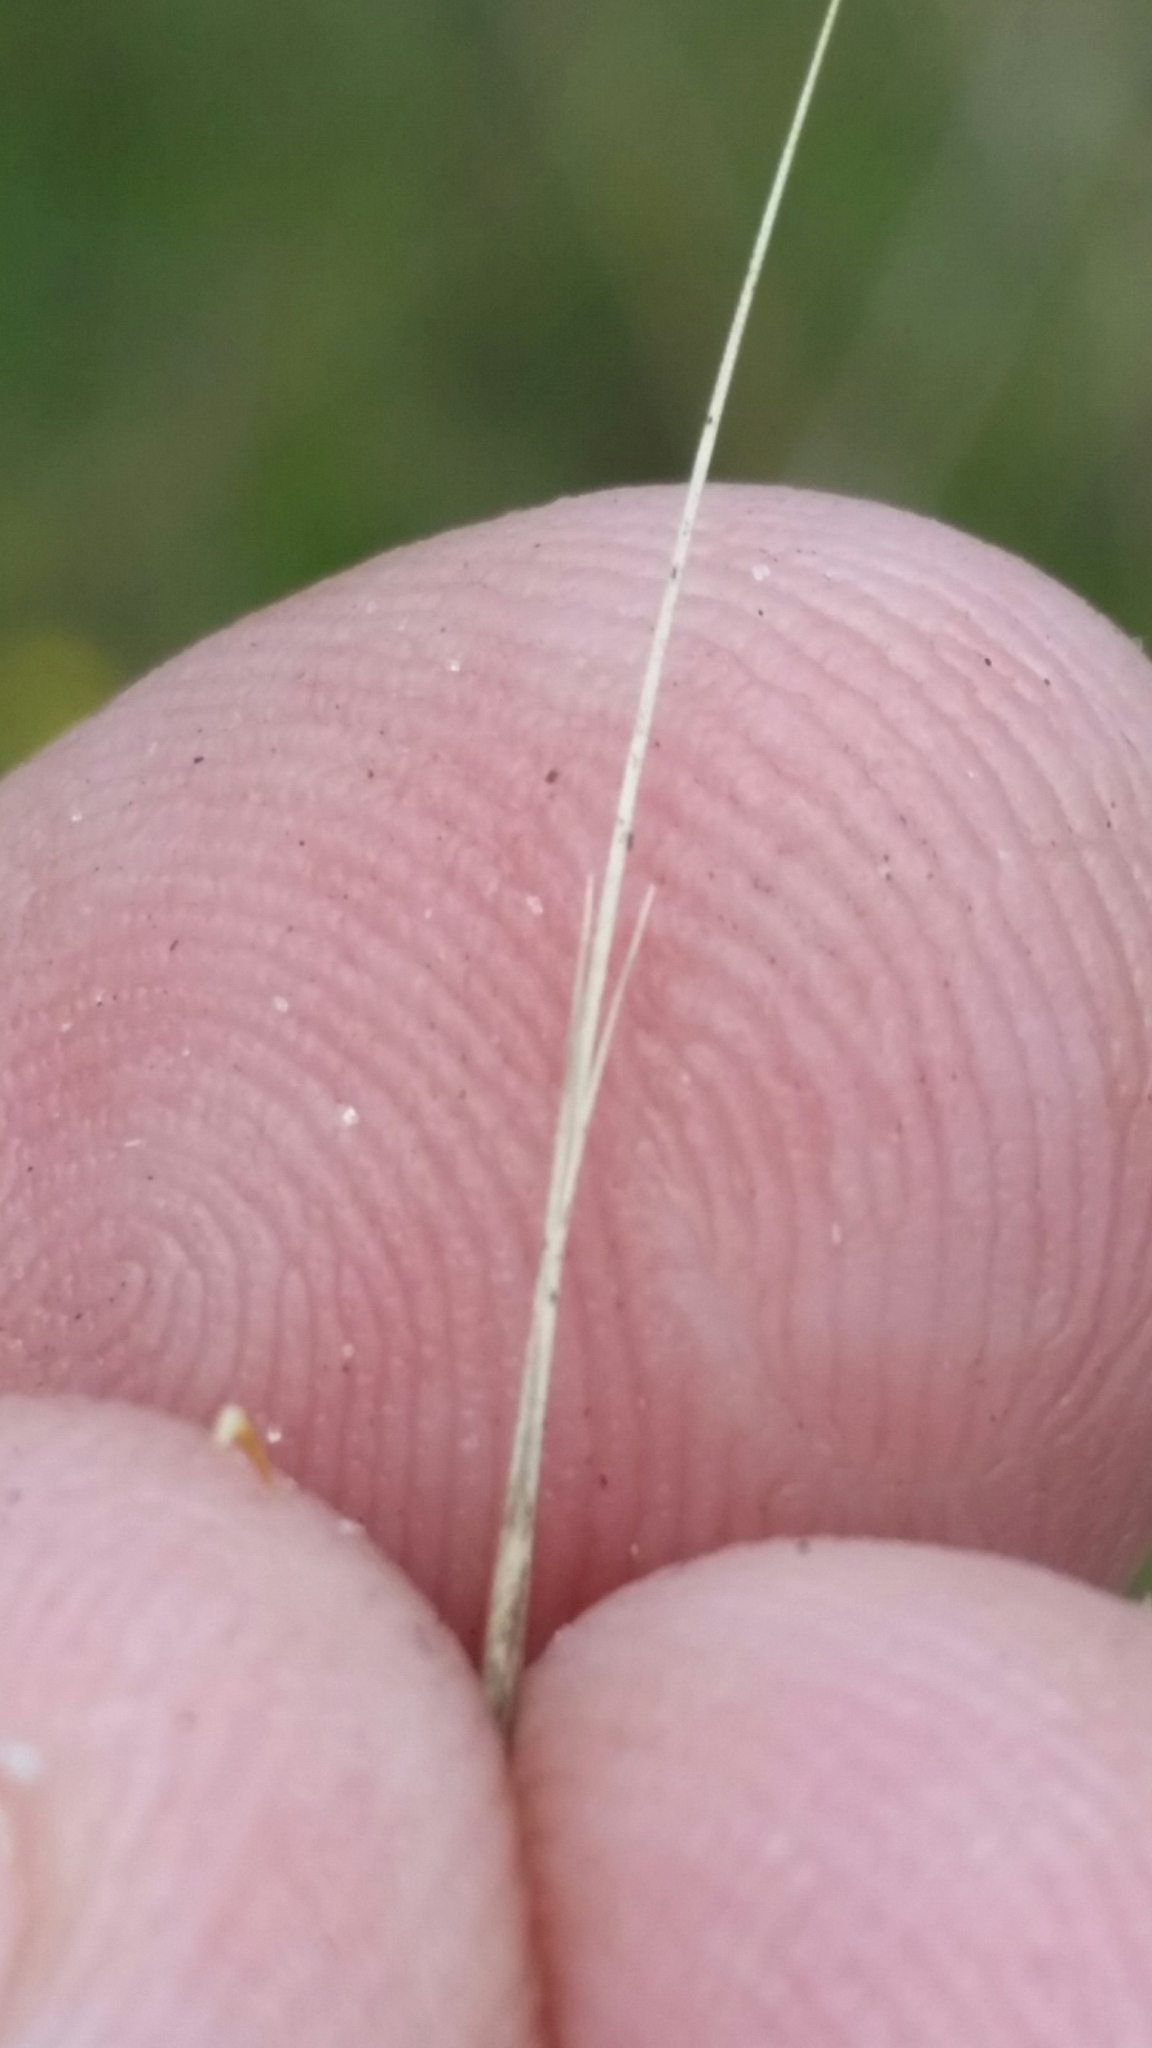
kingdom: Plantae
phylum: Tracheophyta
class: Liliopsida
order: Poales
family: Poaceae
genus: Aristida
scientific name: Aristida patula
